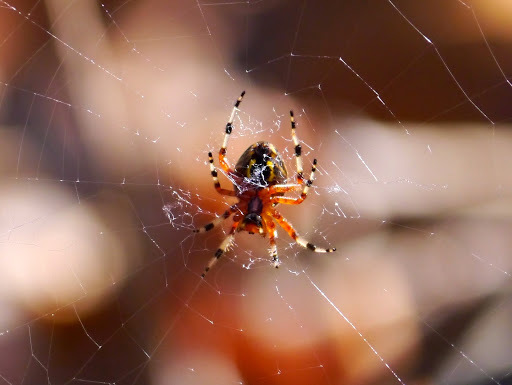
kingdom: Animalia
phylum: Arthropoda
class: Arachnida
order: Araneae
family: Araneidae
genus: Araneus
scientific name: Araneus marmoreus
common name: Marbled orbweaver
